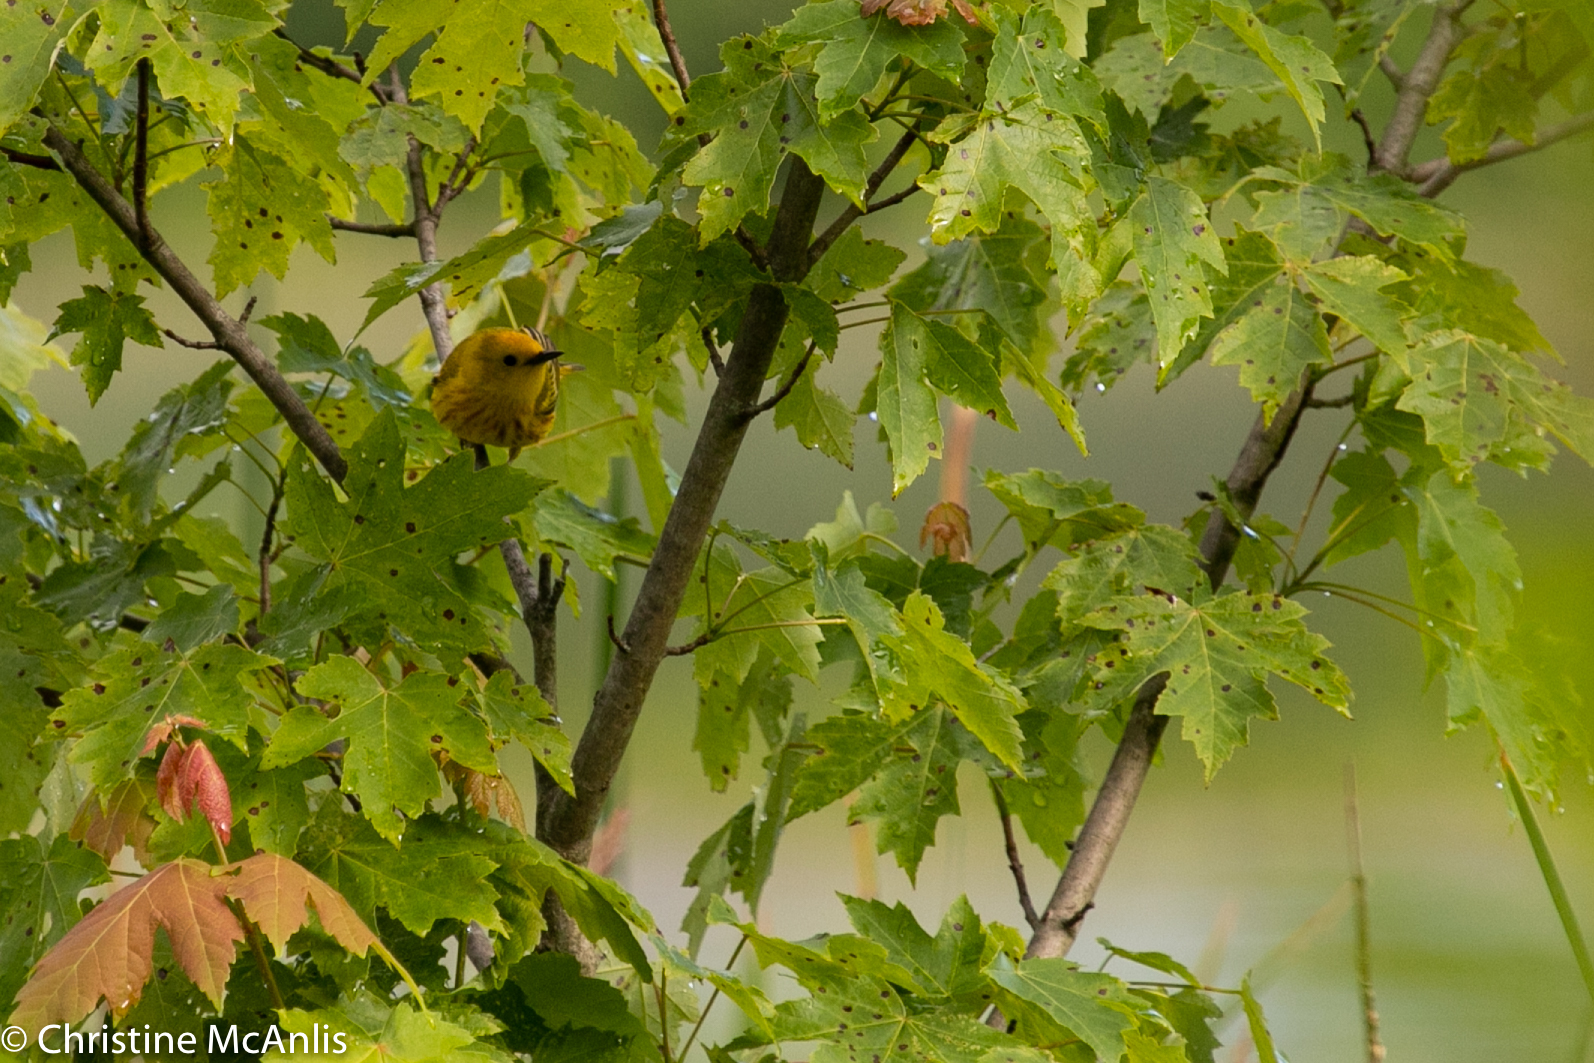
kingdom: Animalia
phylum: Chordata
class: Aves
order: Passeriformes
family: Parulidae
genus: Setophaga
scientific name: Setophaga petechia
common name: Yellow warbler
